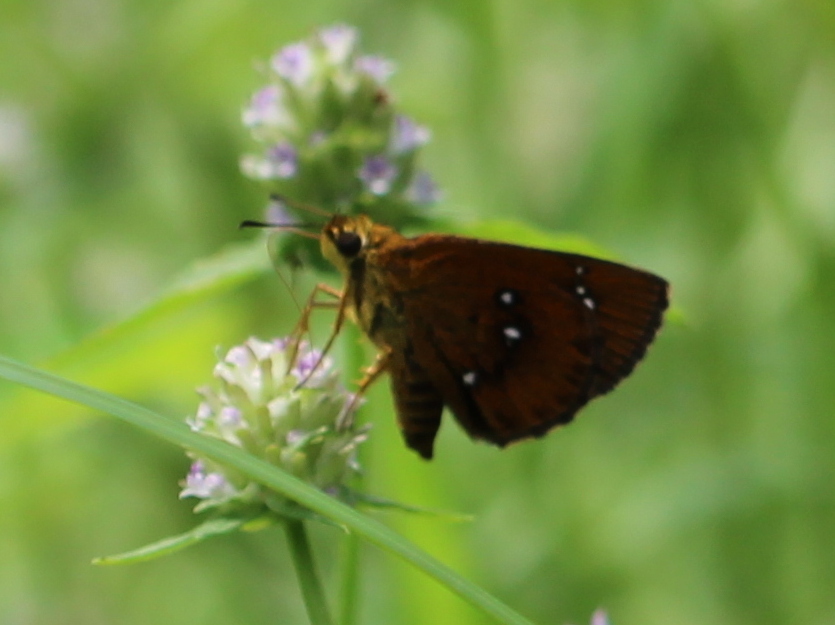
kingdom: Animalia
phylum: Arthropoda
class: Insecta
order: Lepidoptera
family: Hesperiidae
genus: Iambrix
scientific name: Iambrix salsala
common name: Chestnut bob
